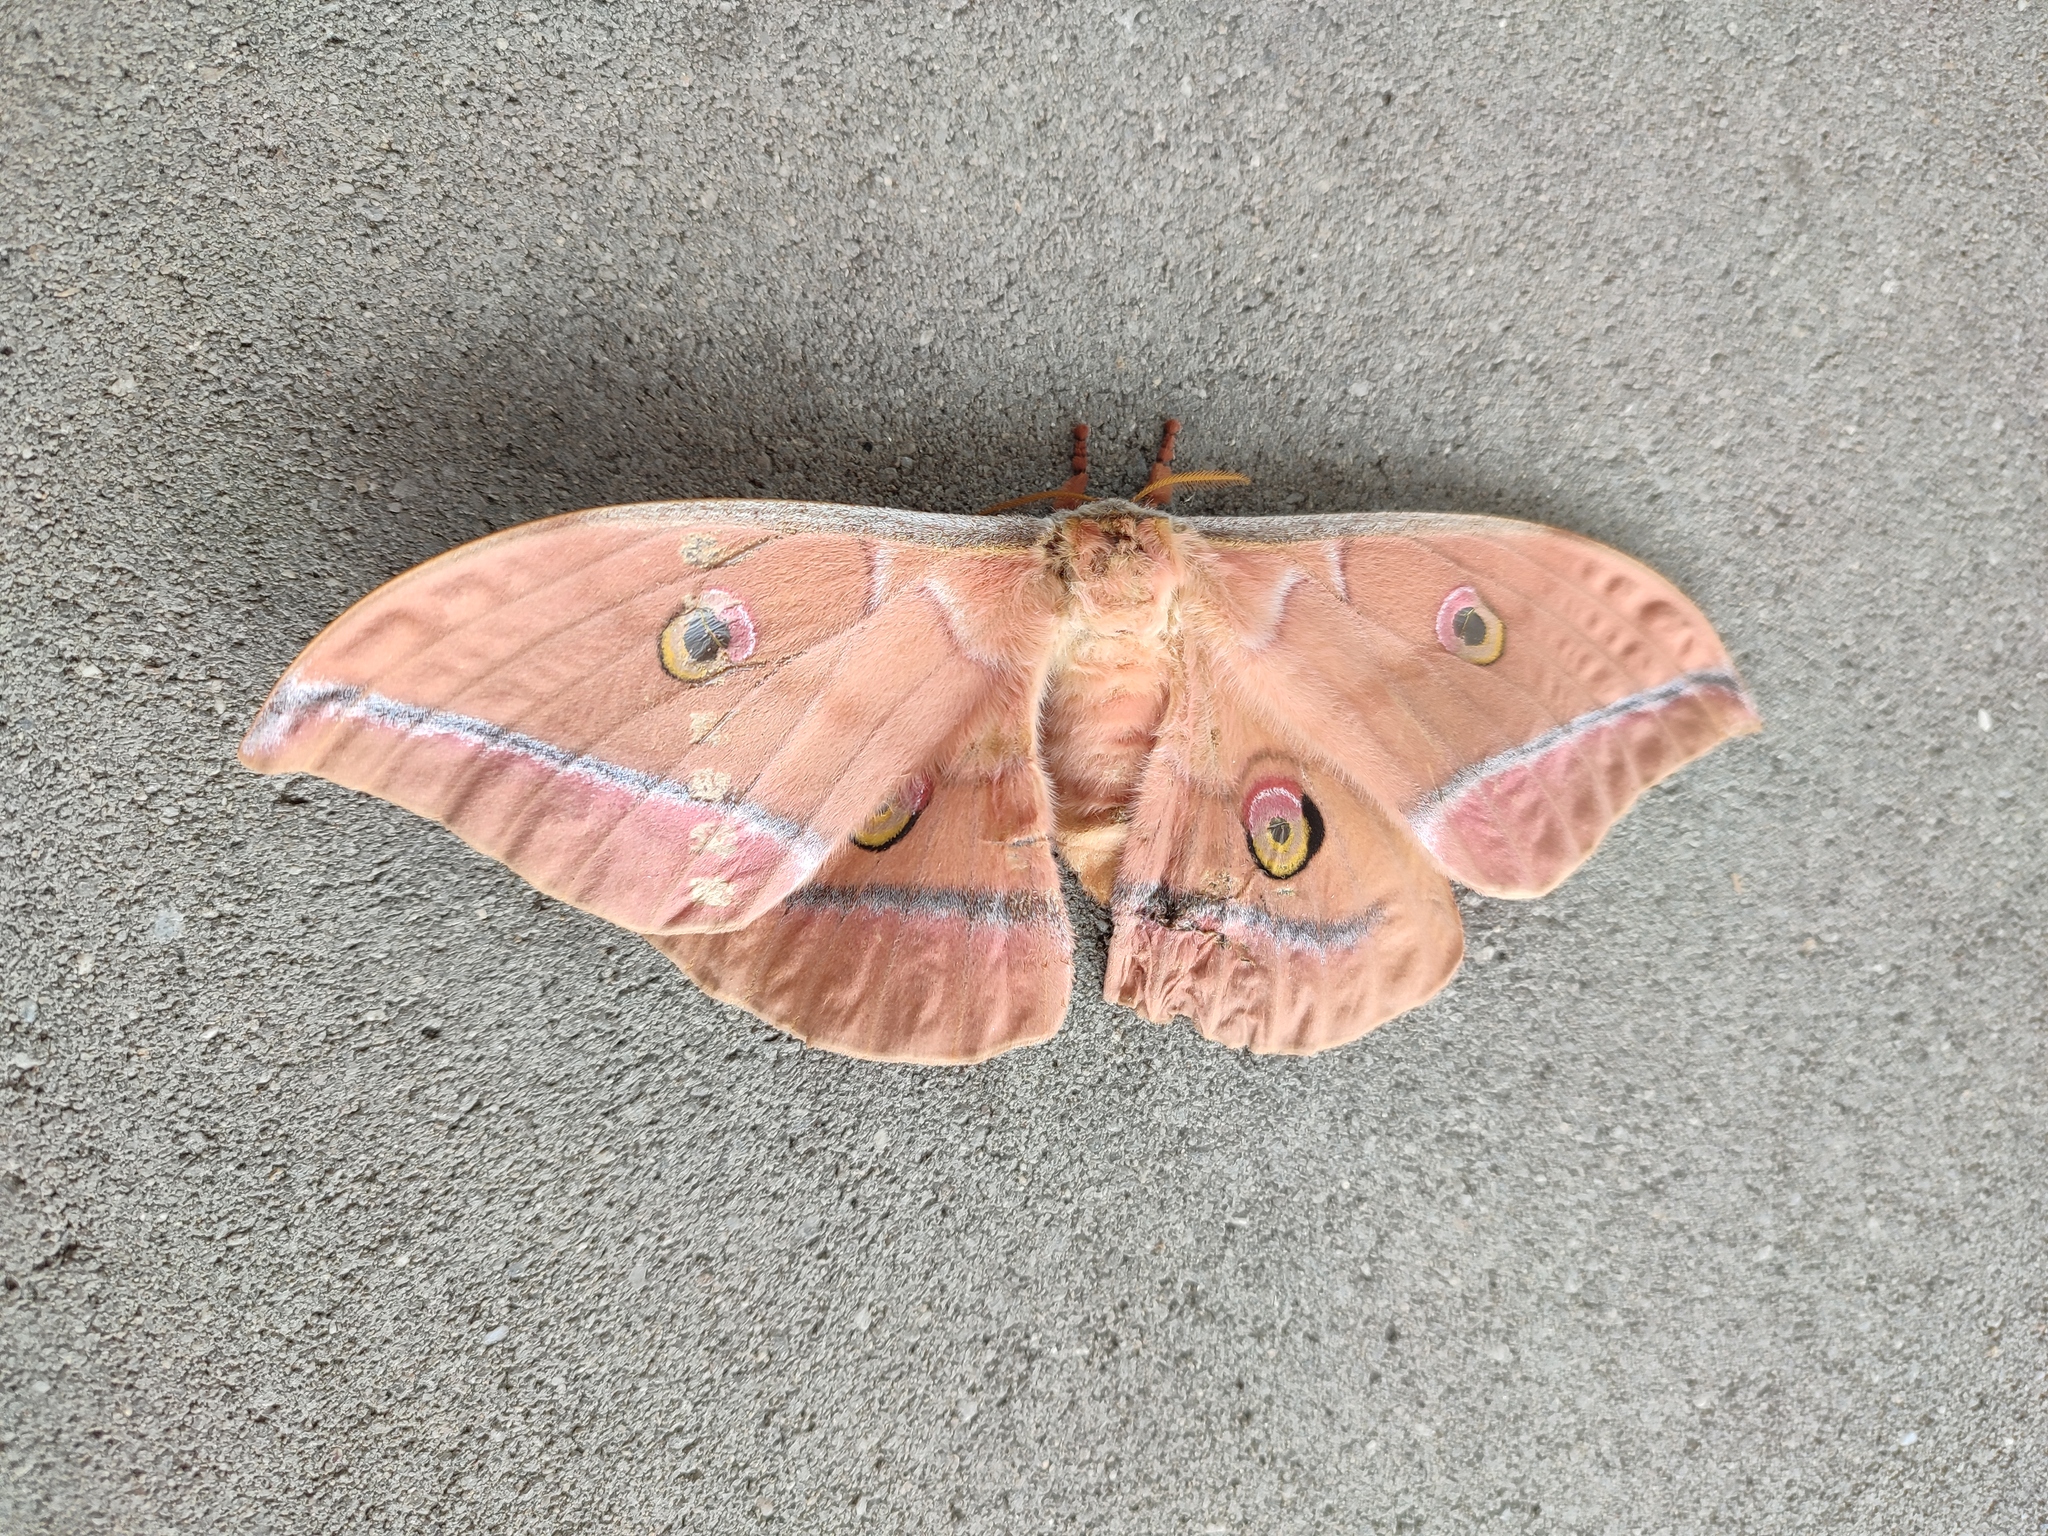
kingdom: Animalia
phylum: Arthropoda
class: Insecta
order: Lepidoptera
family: Saturniidae
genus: Antheraea
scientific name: Antheraea yamamai
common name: Japanese oak silk moth
